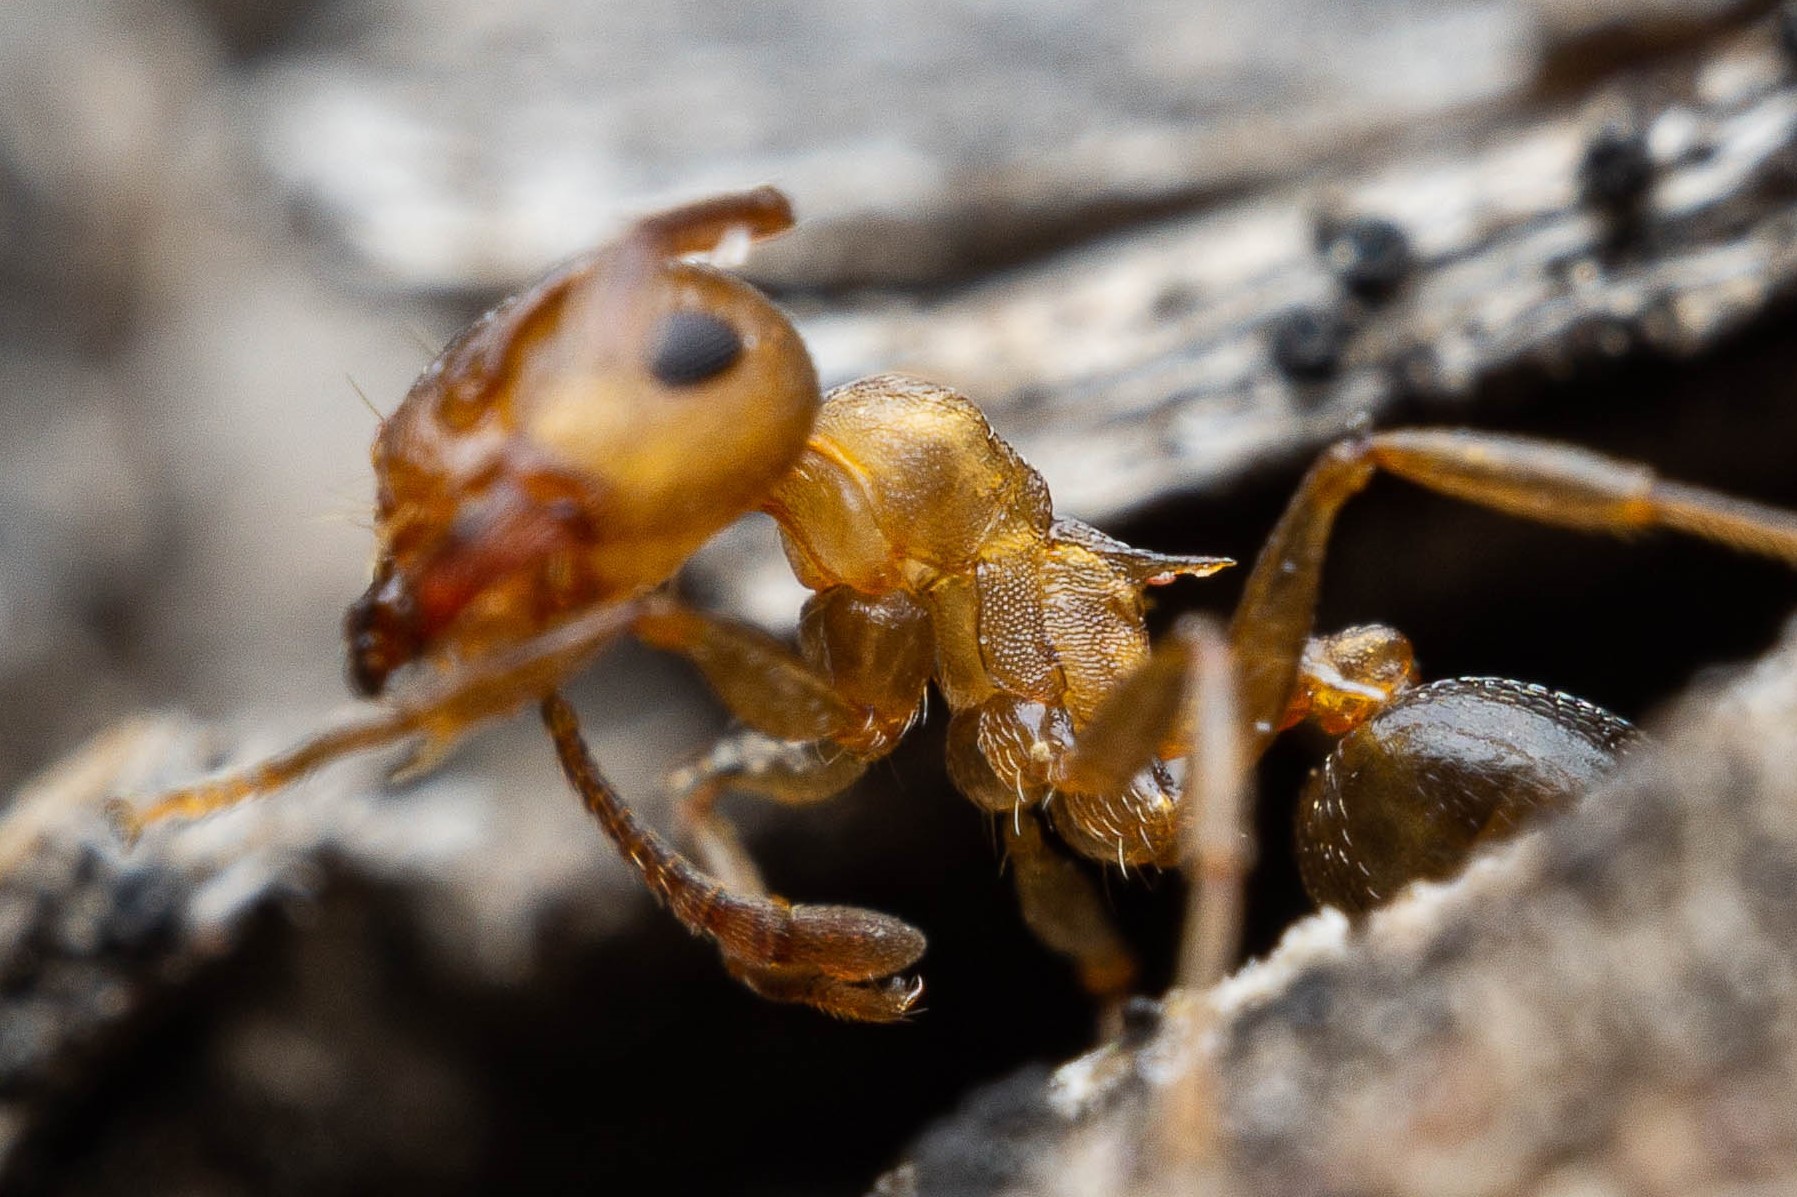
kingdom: Animalia
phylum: Arthropoda
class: Insecta
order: Hymenoptera
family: Formicidae
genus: Crematogaster
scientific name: Crematogaster depilis
